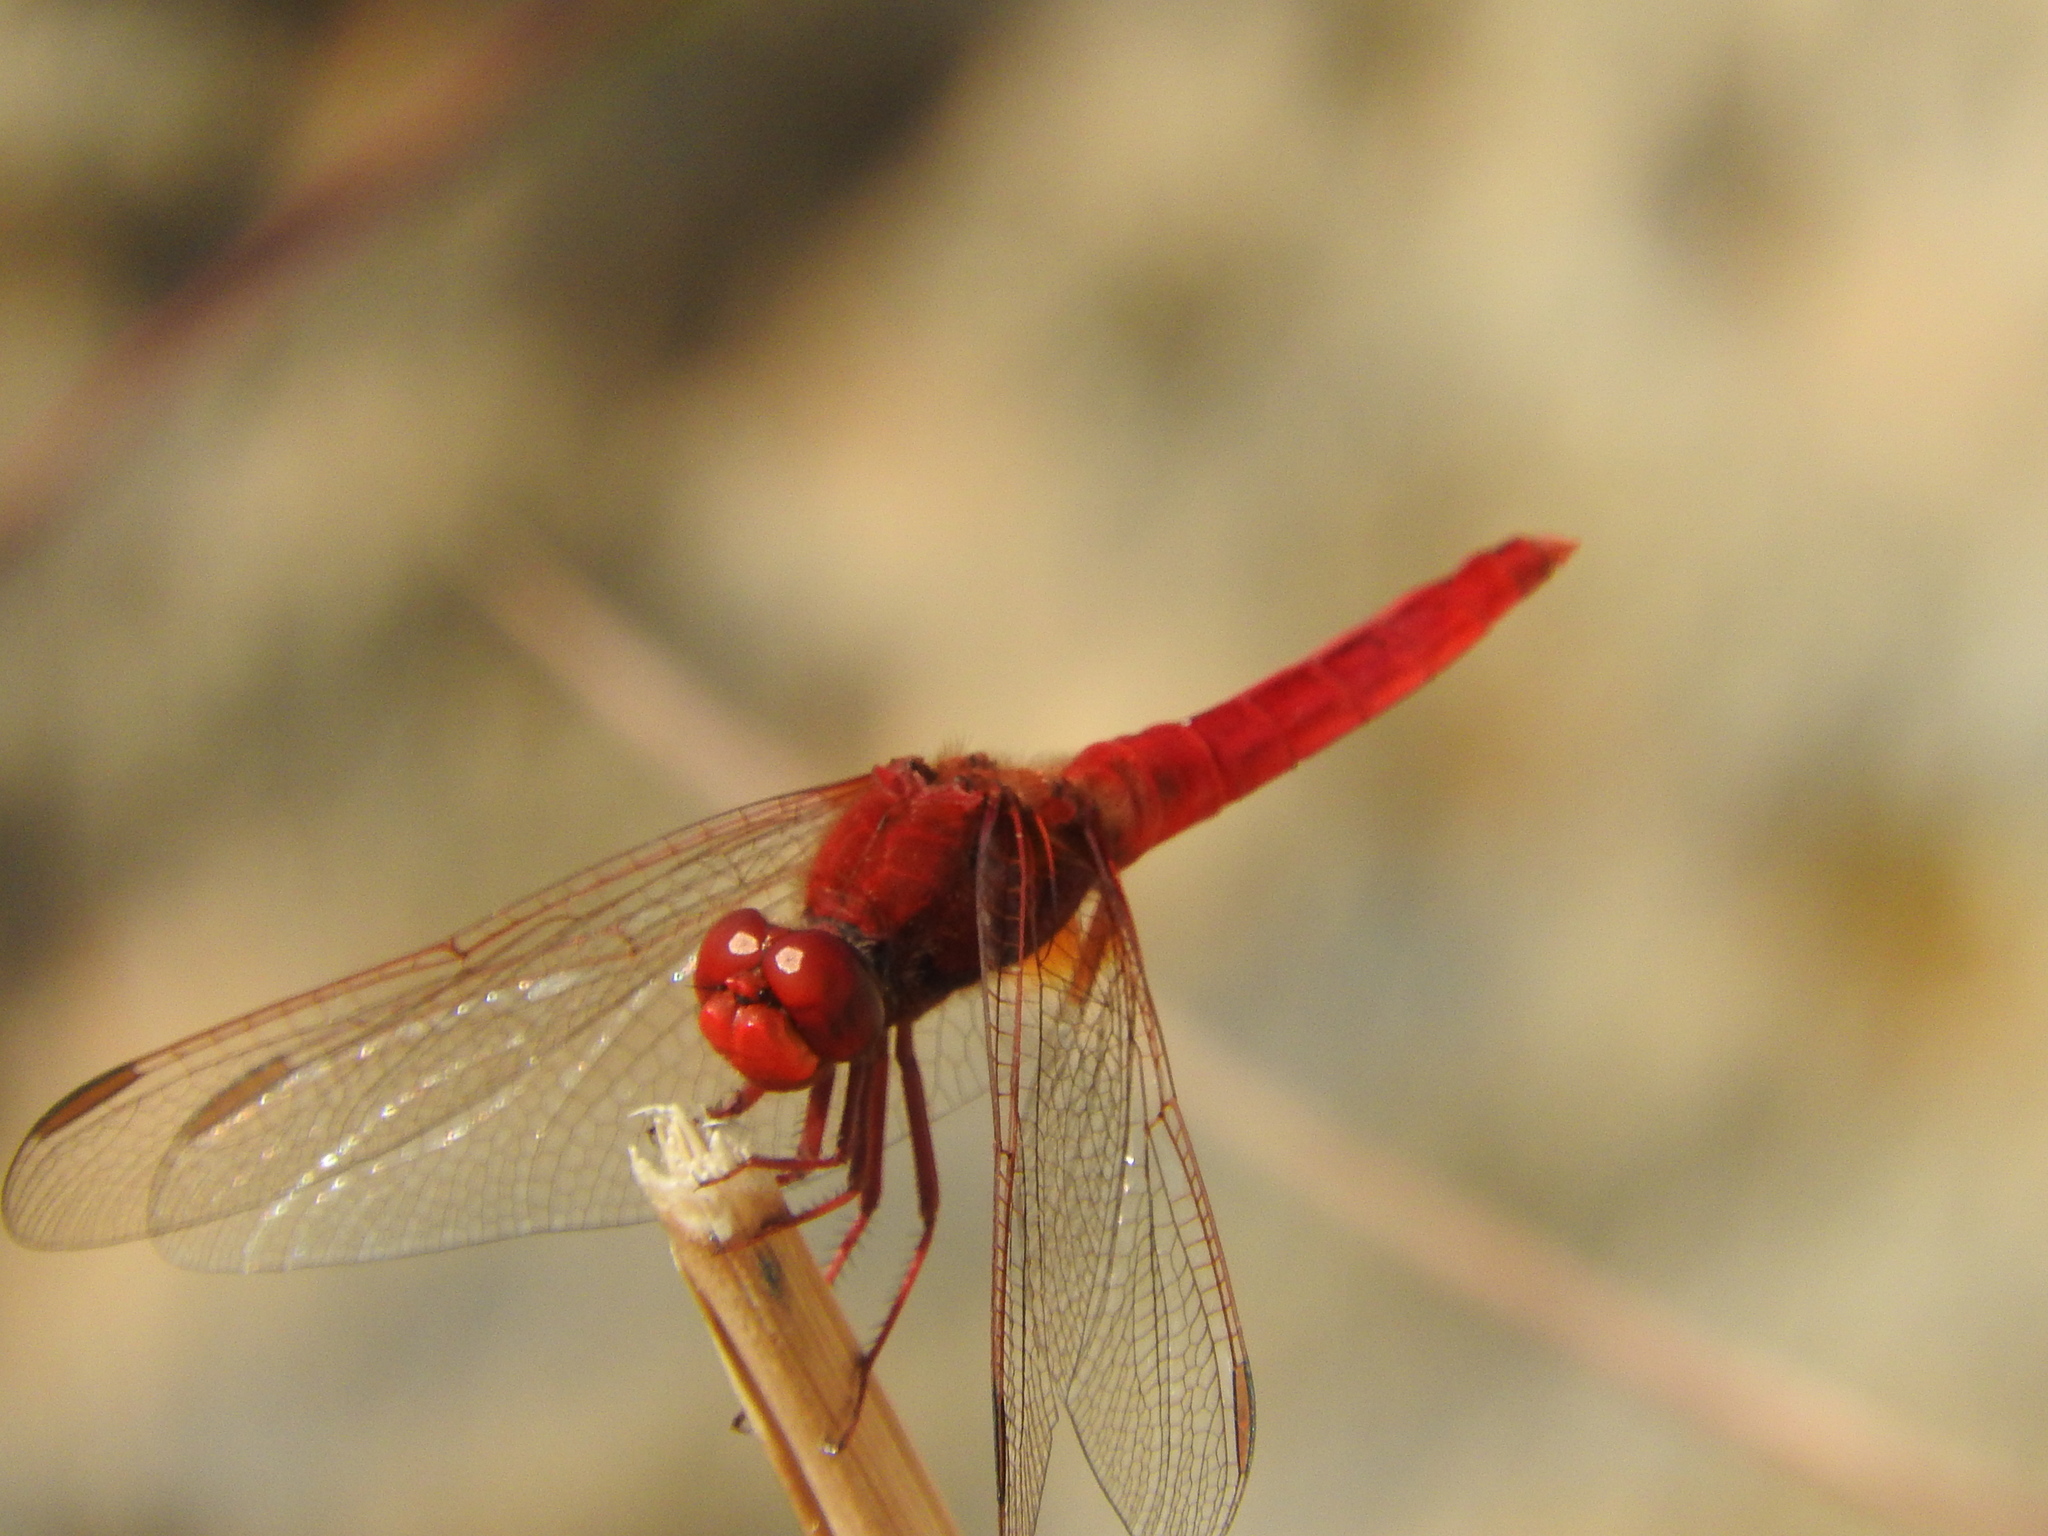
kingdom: Animalia
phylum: Arthropoda
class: Insecta
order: Odonata
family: Libellulidae
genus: Crocothemis
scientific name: Crocothemis erythraea
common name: Scarlet dragonfly
